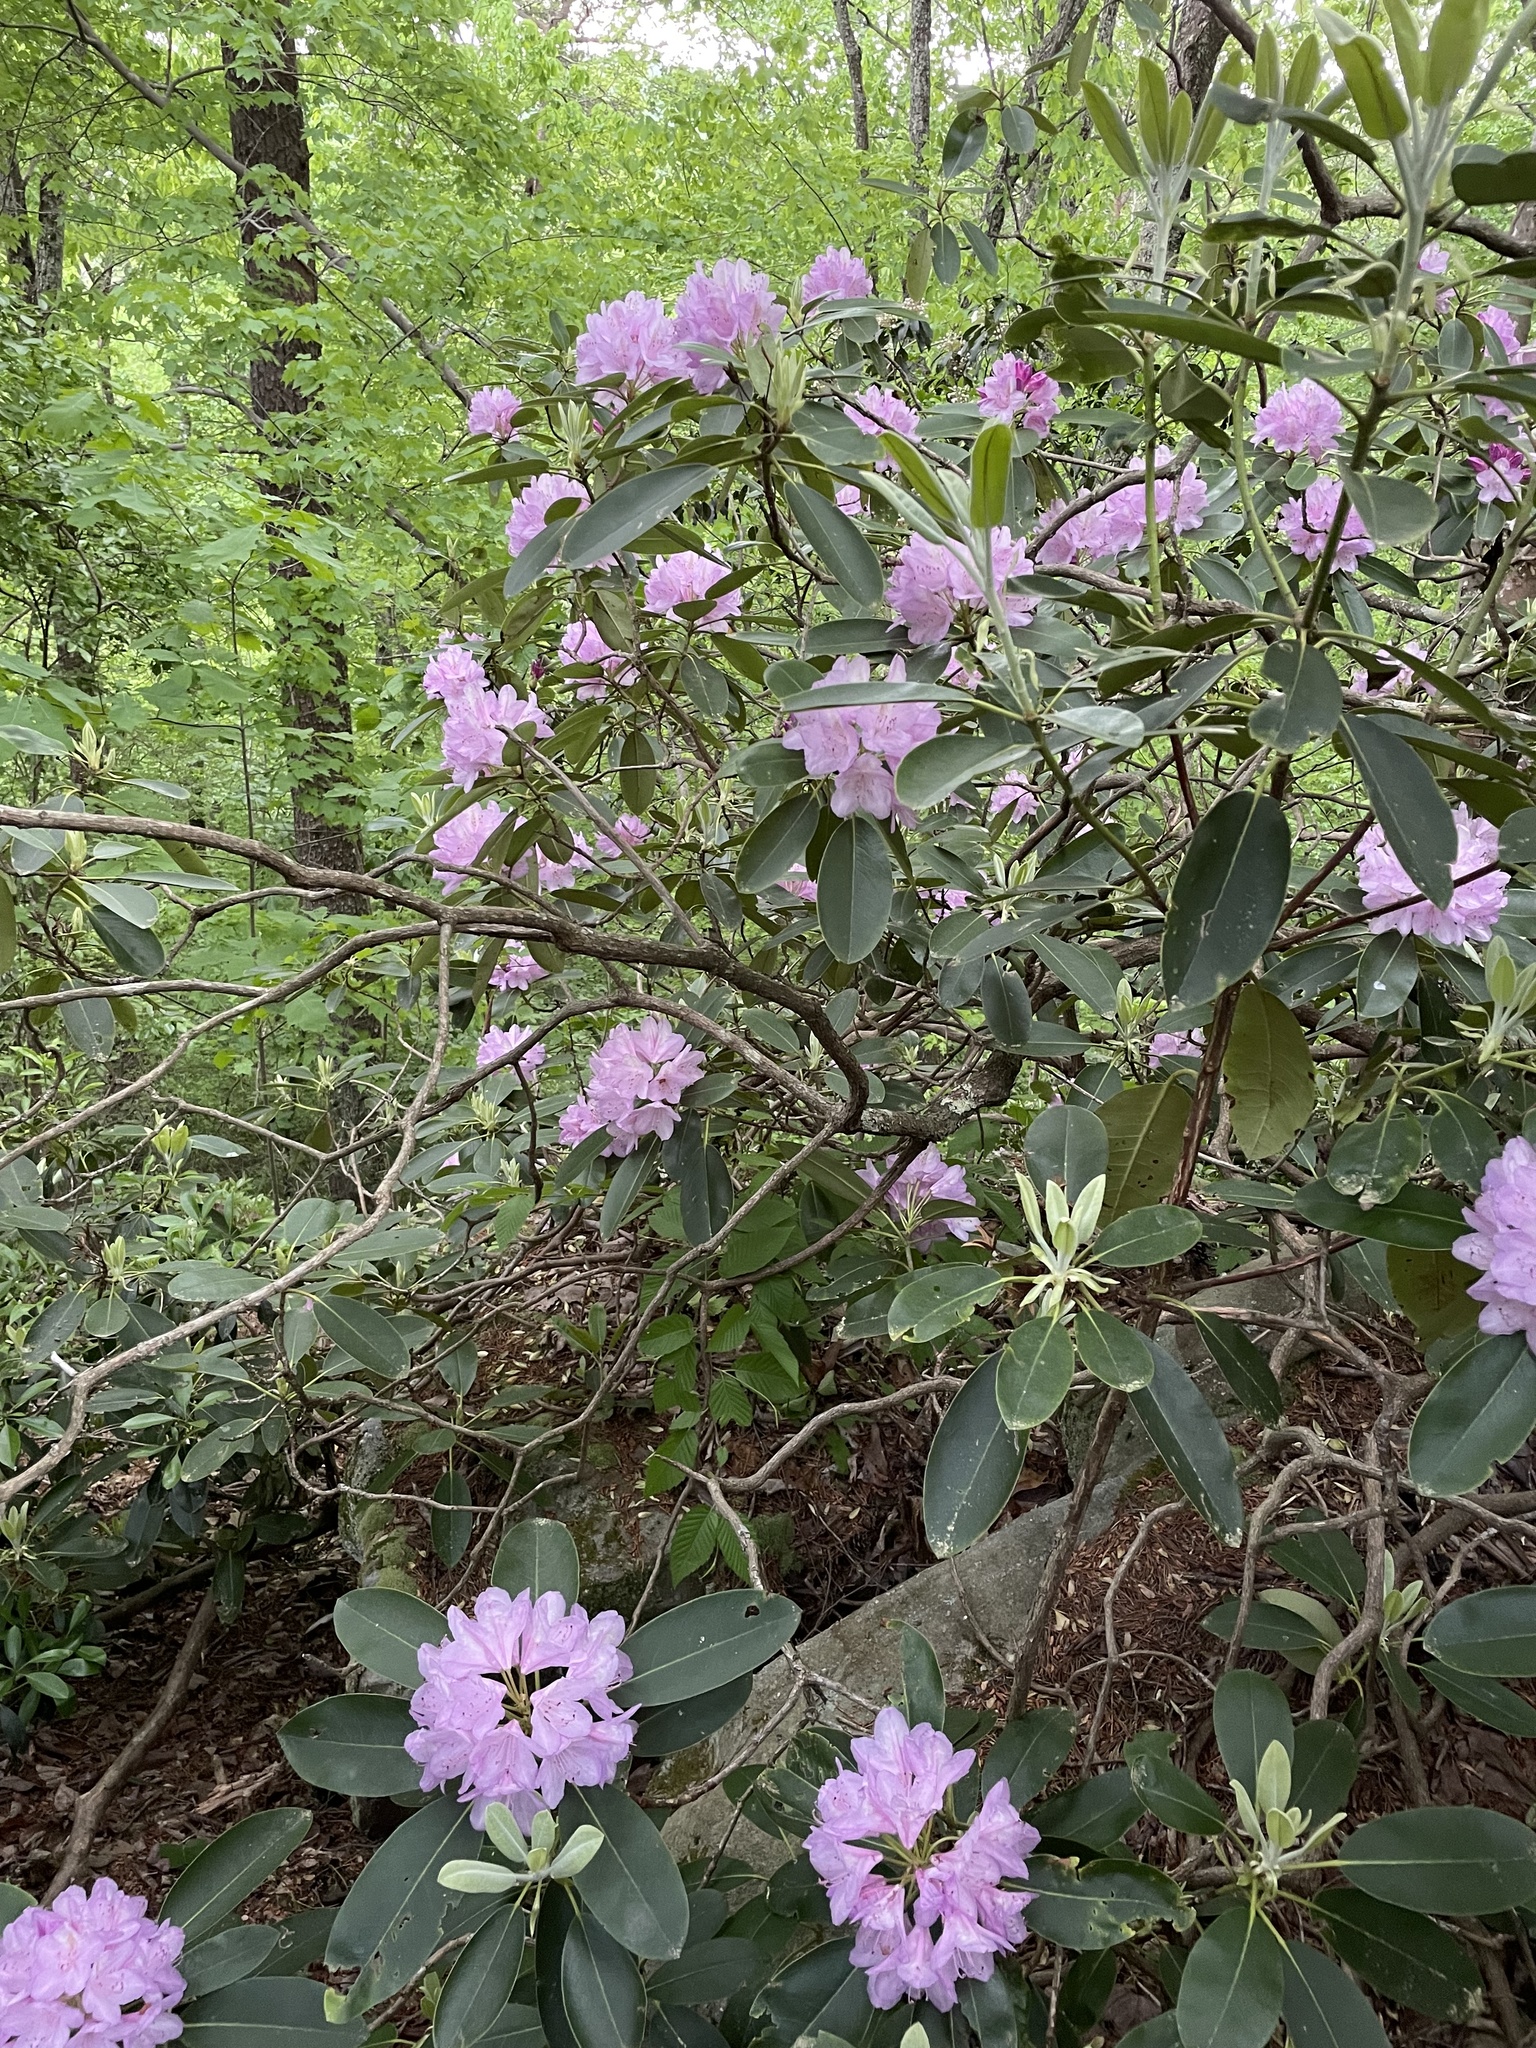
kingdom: Plantae
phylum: Tracheophyta
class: Magnoliopsida
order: Ericales
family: Ericaceae
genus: Rhododendron
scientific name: Rhododendron catawbiense
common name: Catawba rhododendron
